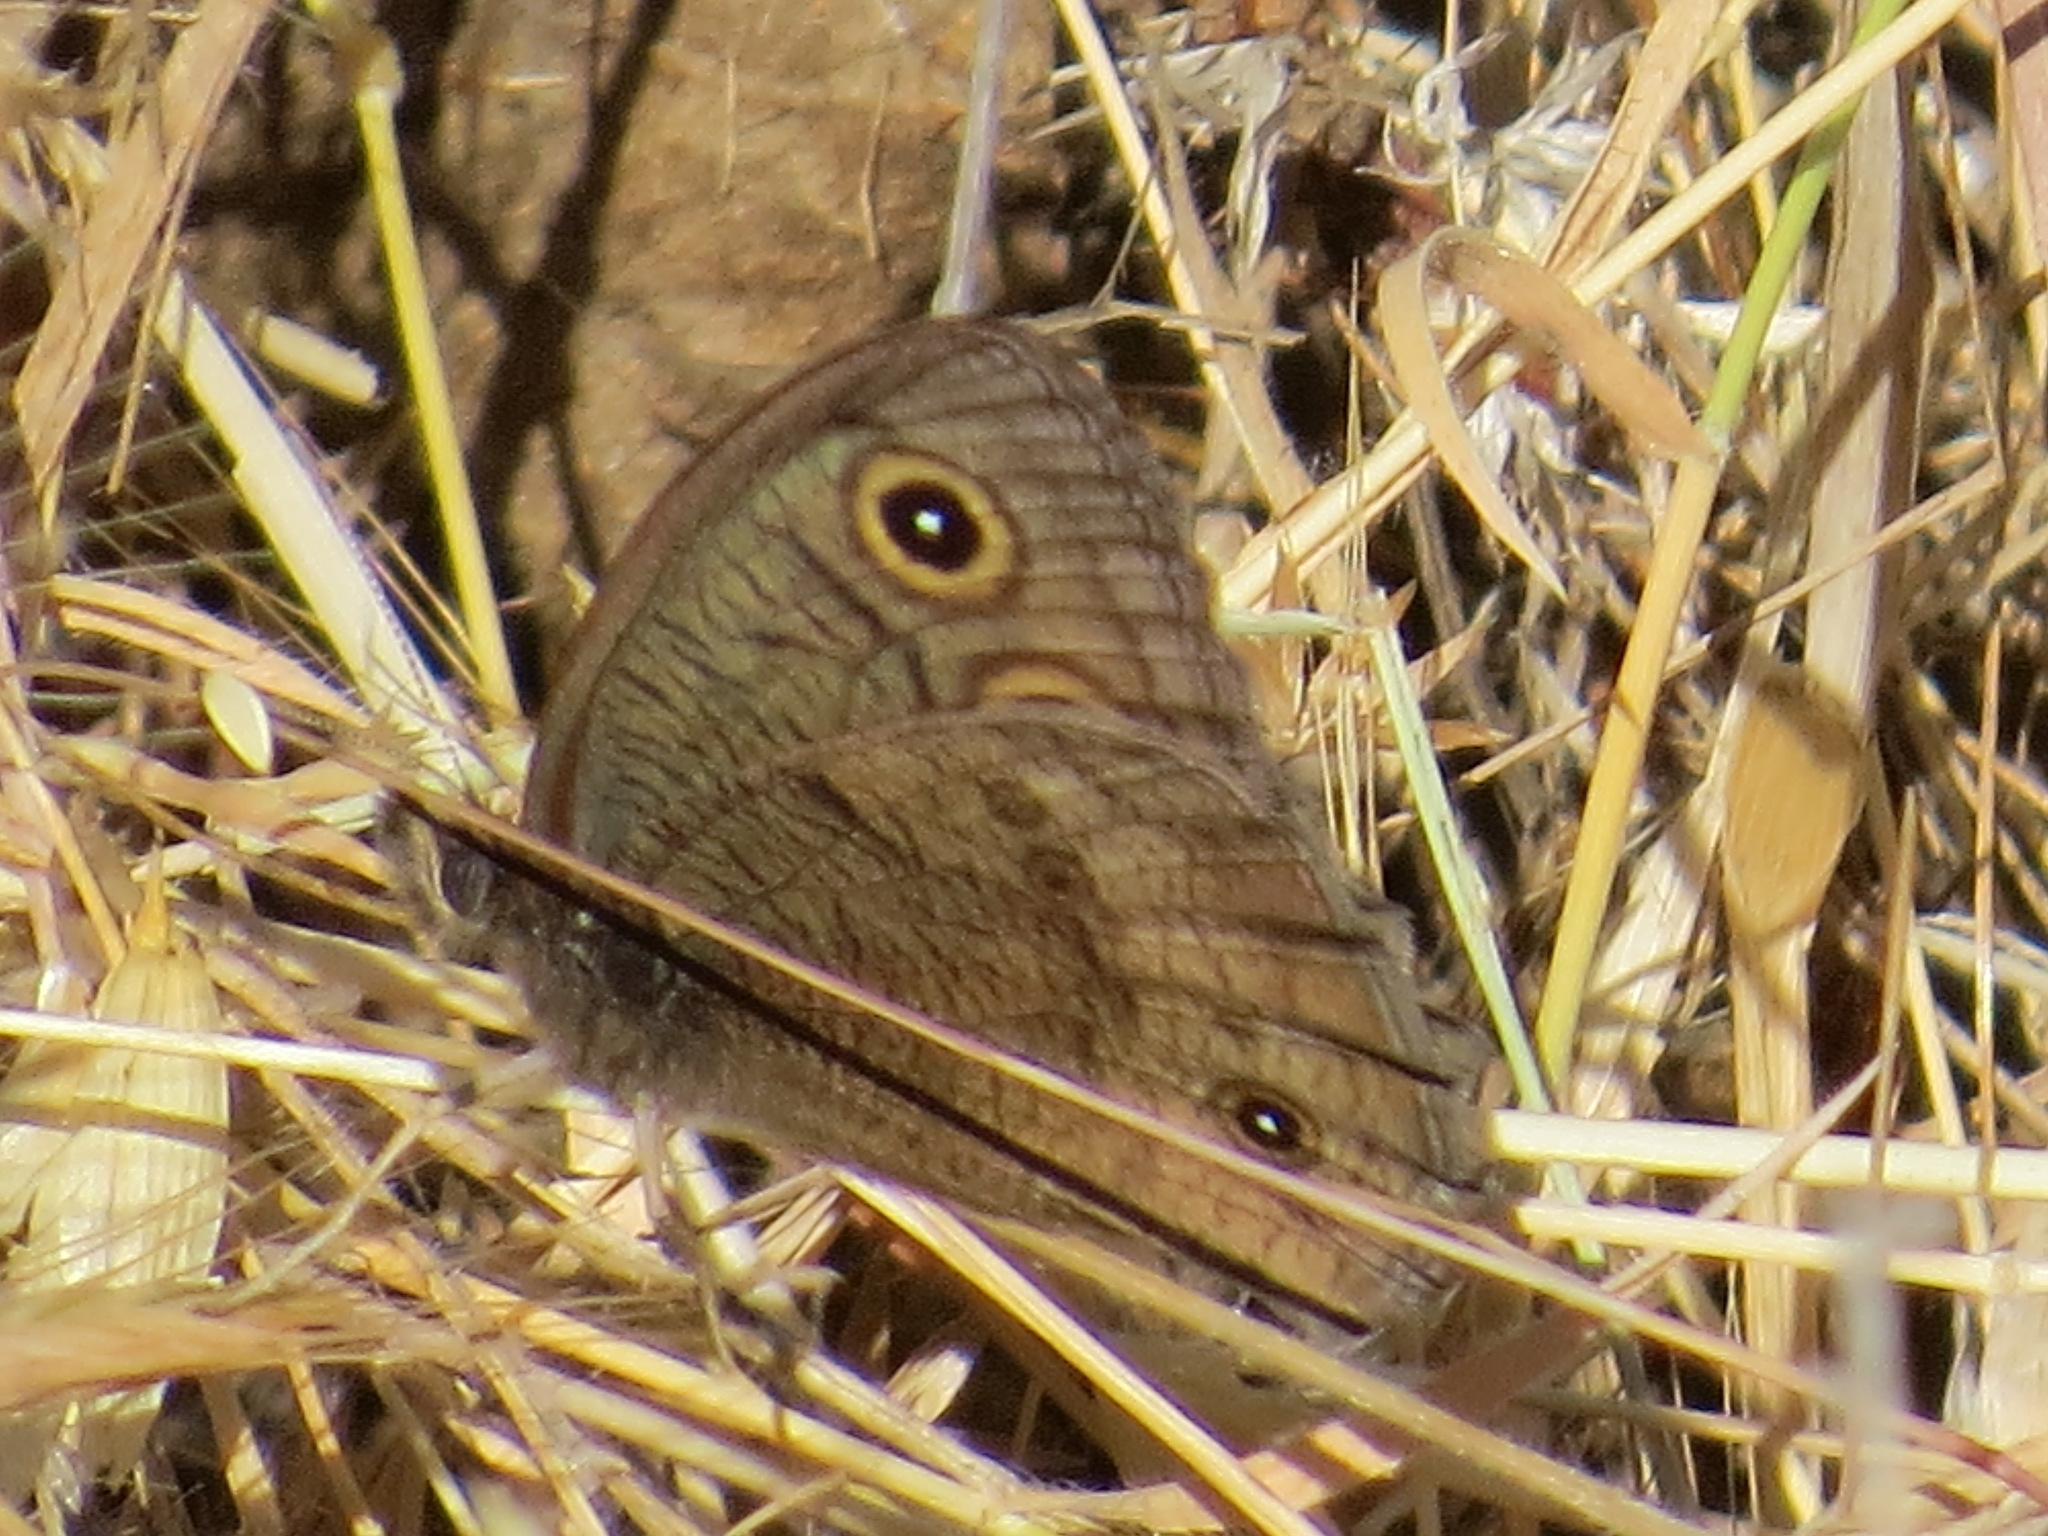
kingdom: Animalia
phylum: Arthropoda
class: Insecta
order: Lepidoptera
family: Nymphalidae
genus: Cercyonis
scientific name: Cercyonis pegala
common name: Common wood-nymph
